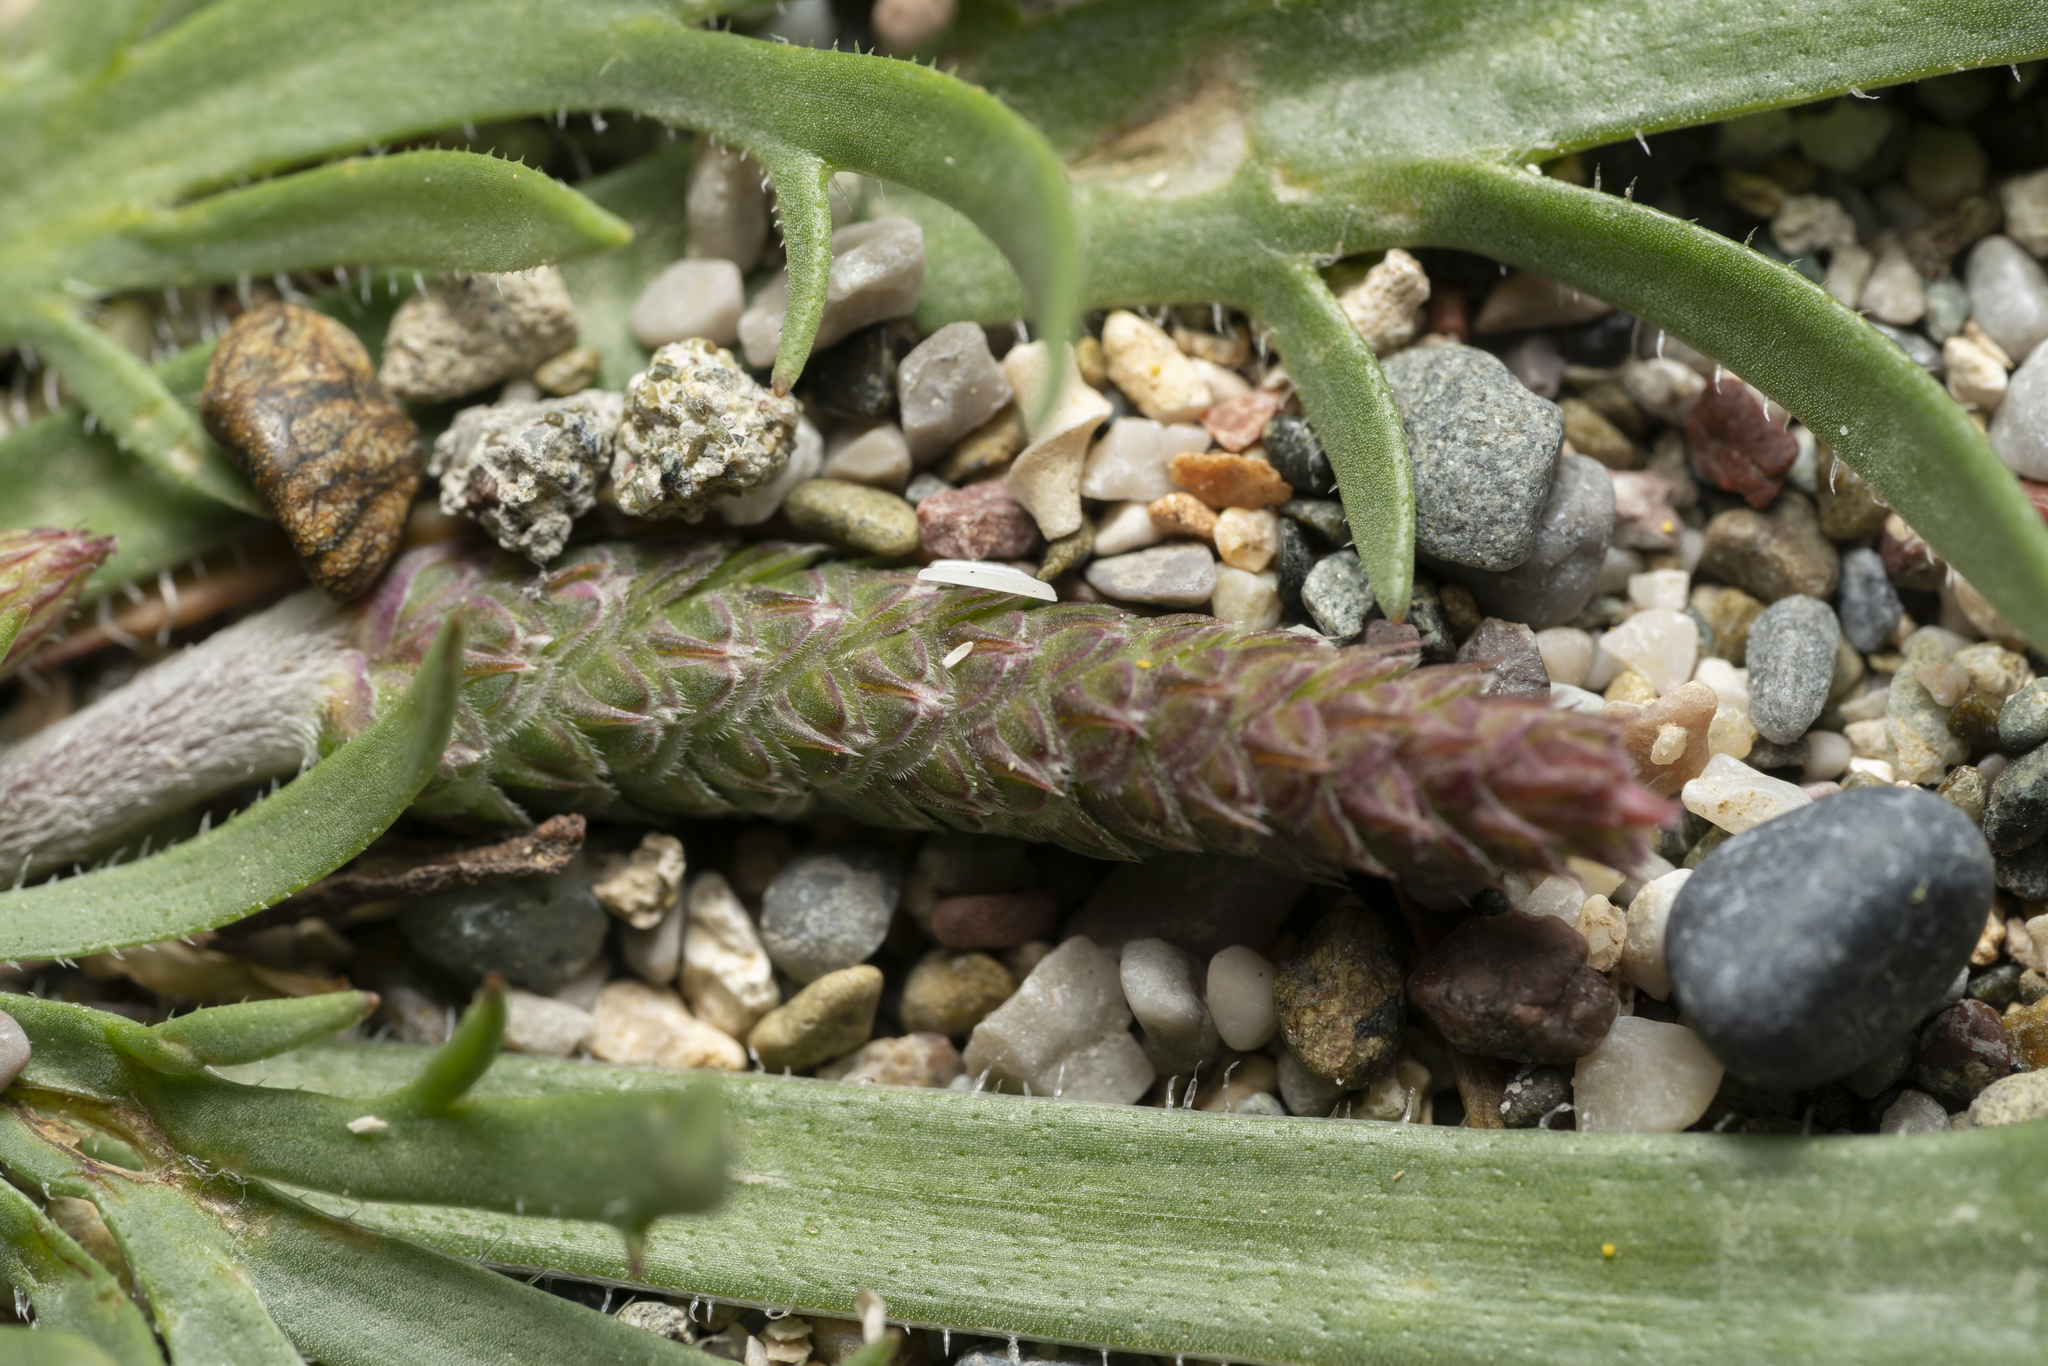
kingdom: Plantae
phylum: Tracheophyta
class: Magnoliopsida
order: Lamiales
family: Plantaginaceae
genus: Plantago
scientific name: Plantago weldenii
